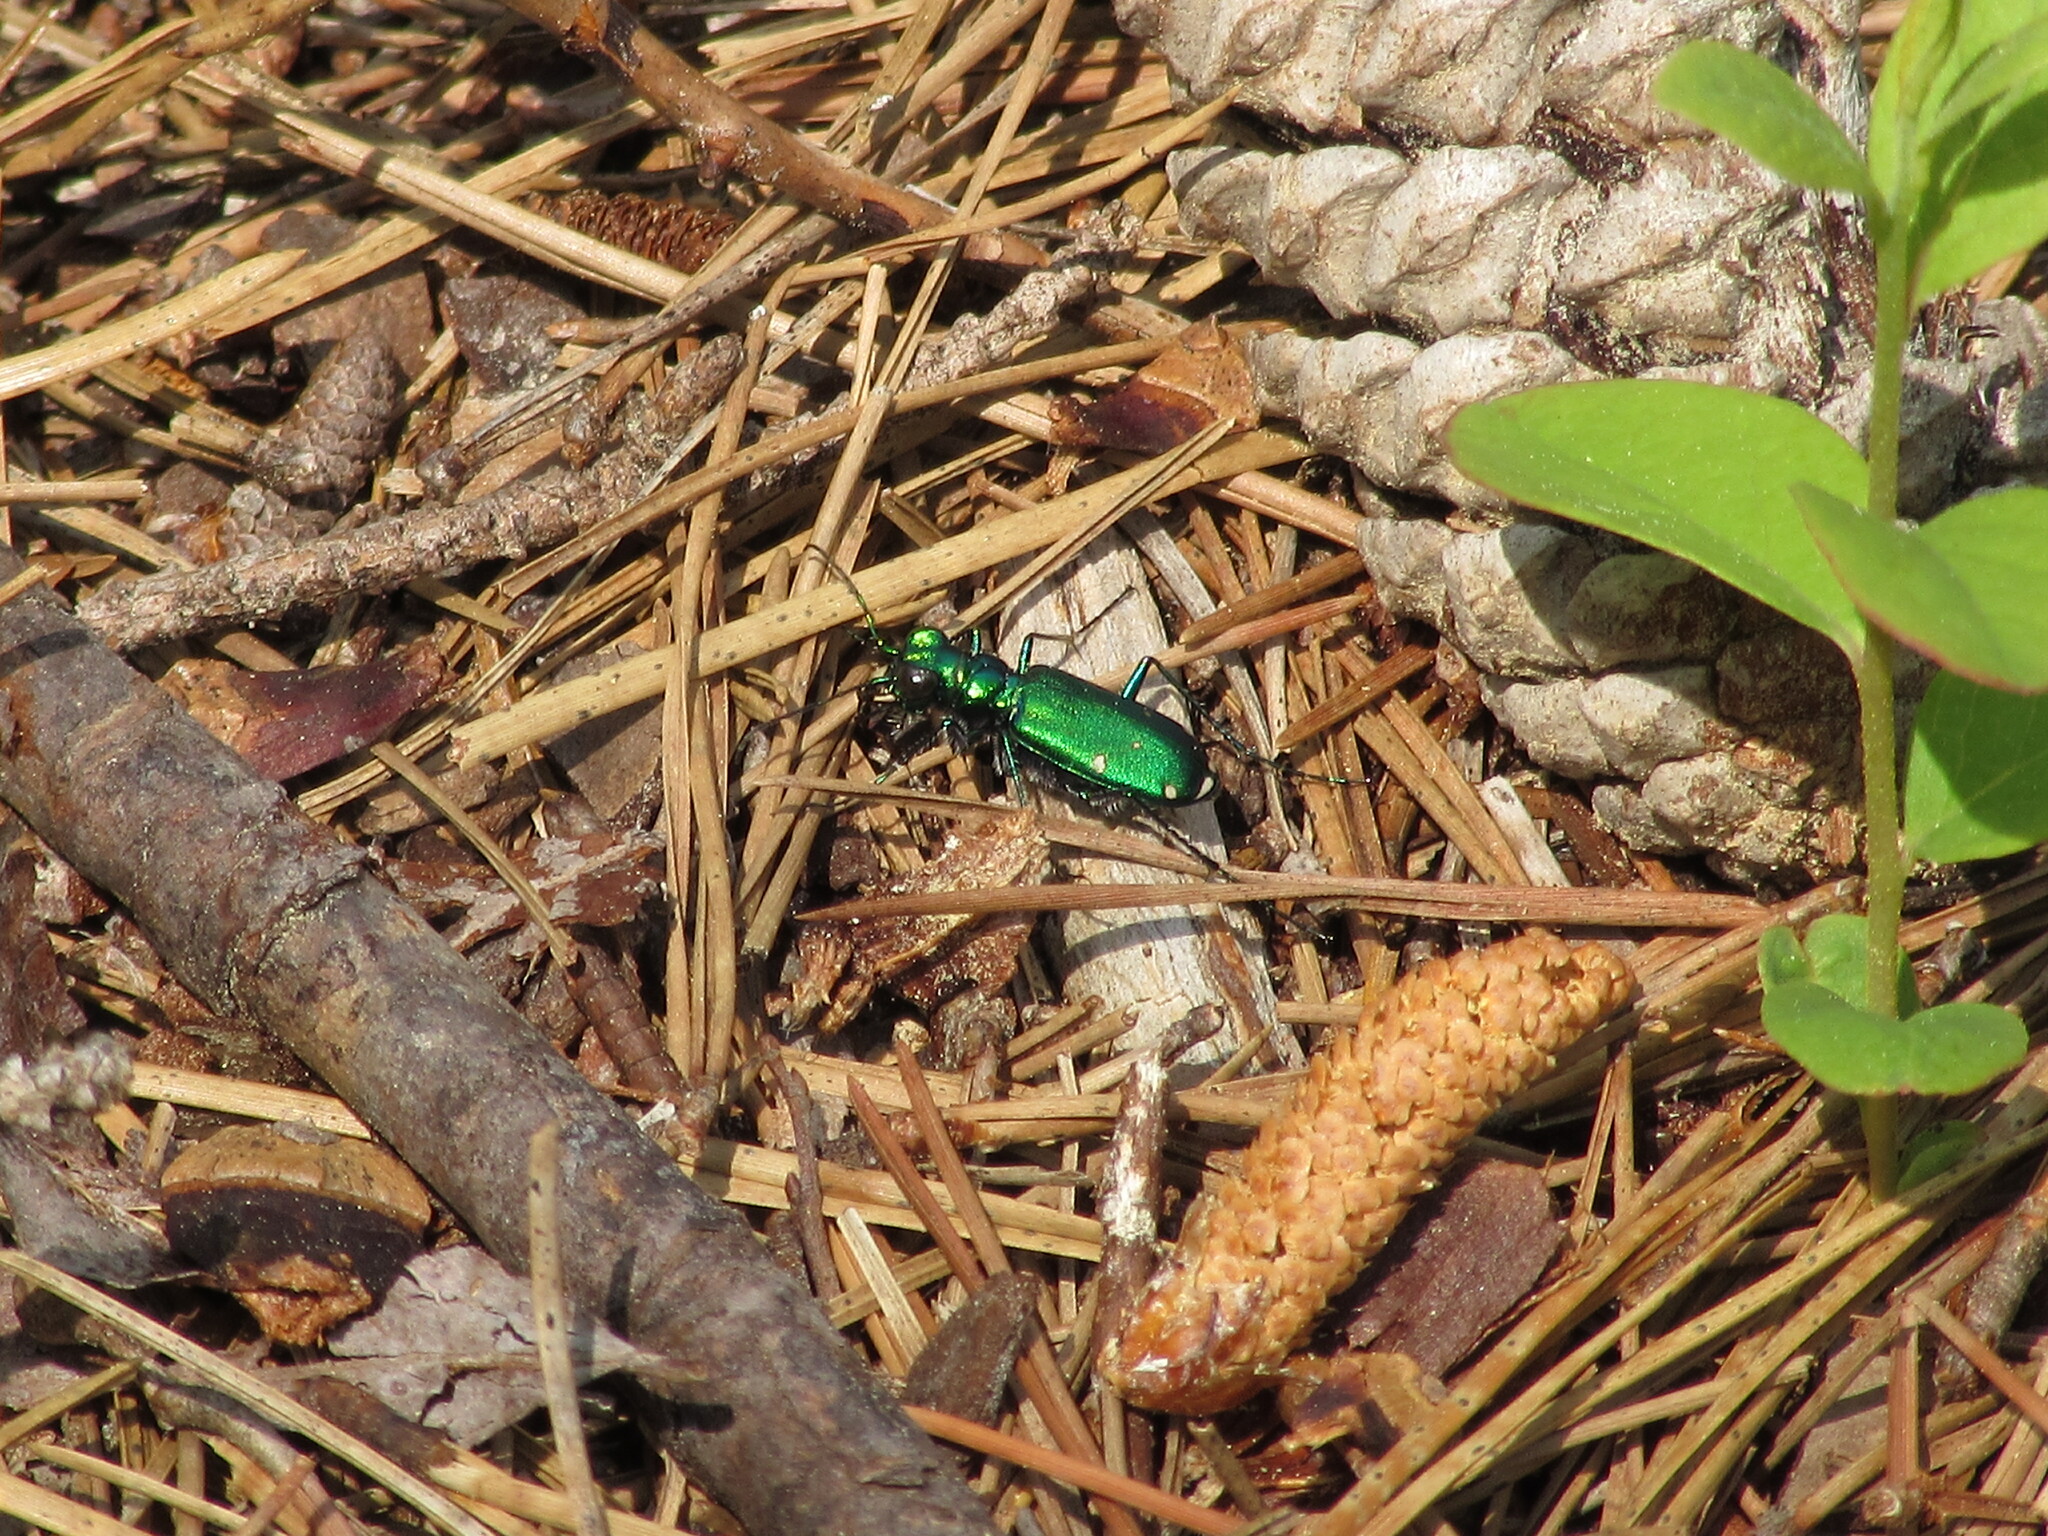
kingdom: Animalia
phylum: Arthropoda
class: Insecta
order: Coleoptera
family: Carabidae
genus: Cicindela
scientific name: Cicindela sexguttata
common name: Six-spotted tiger beetle
